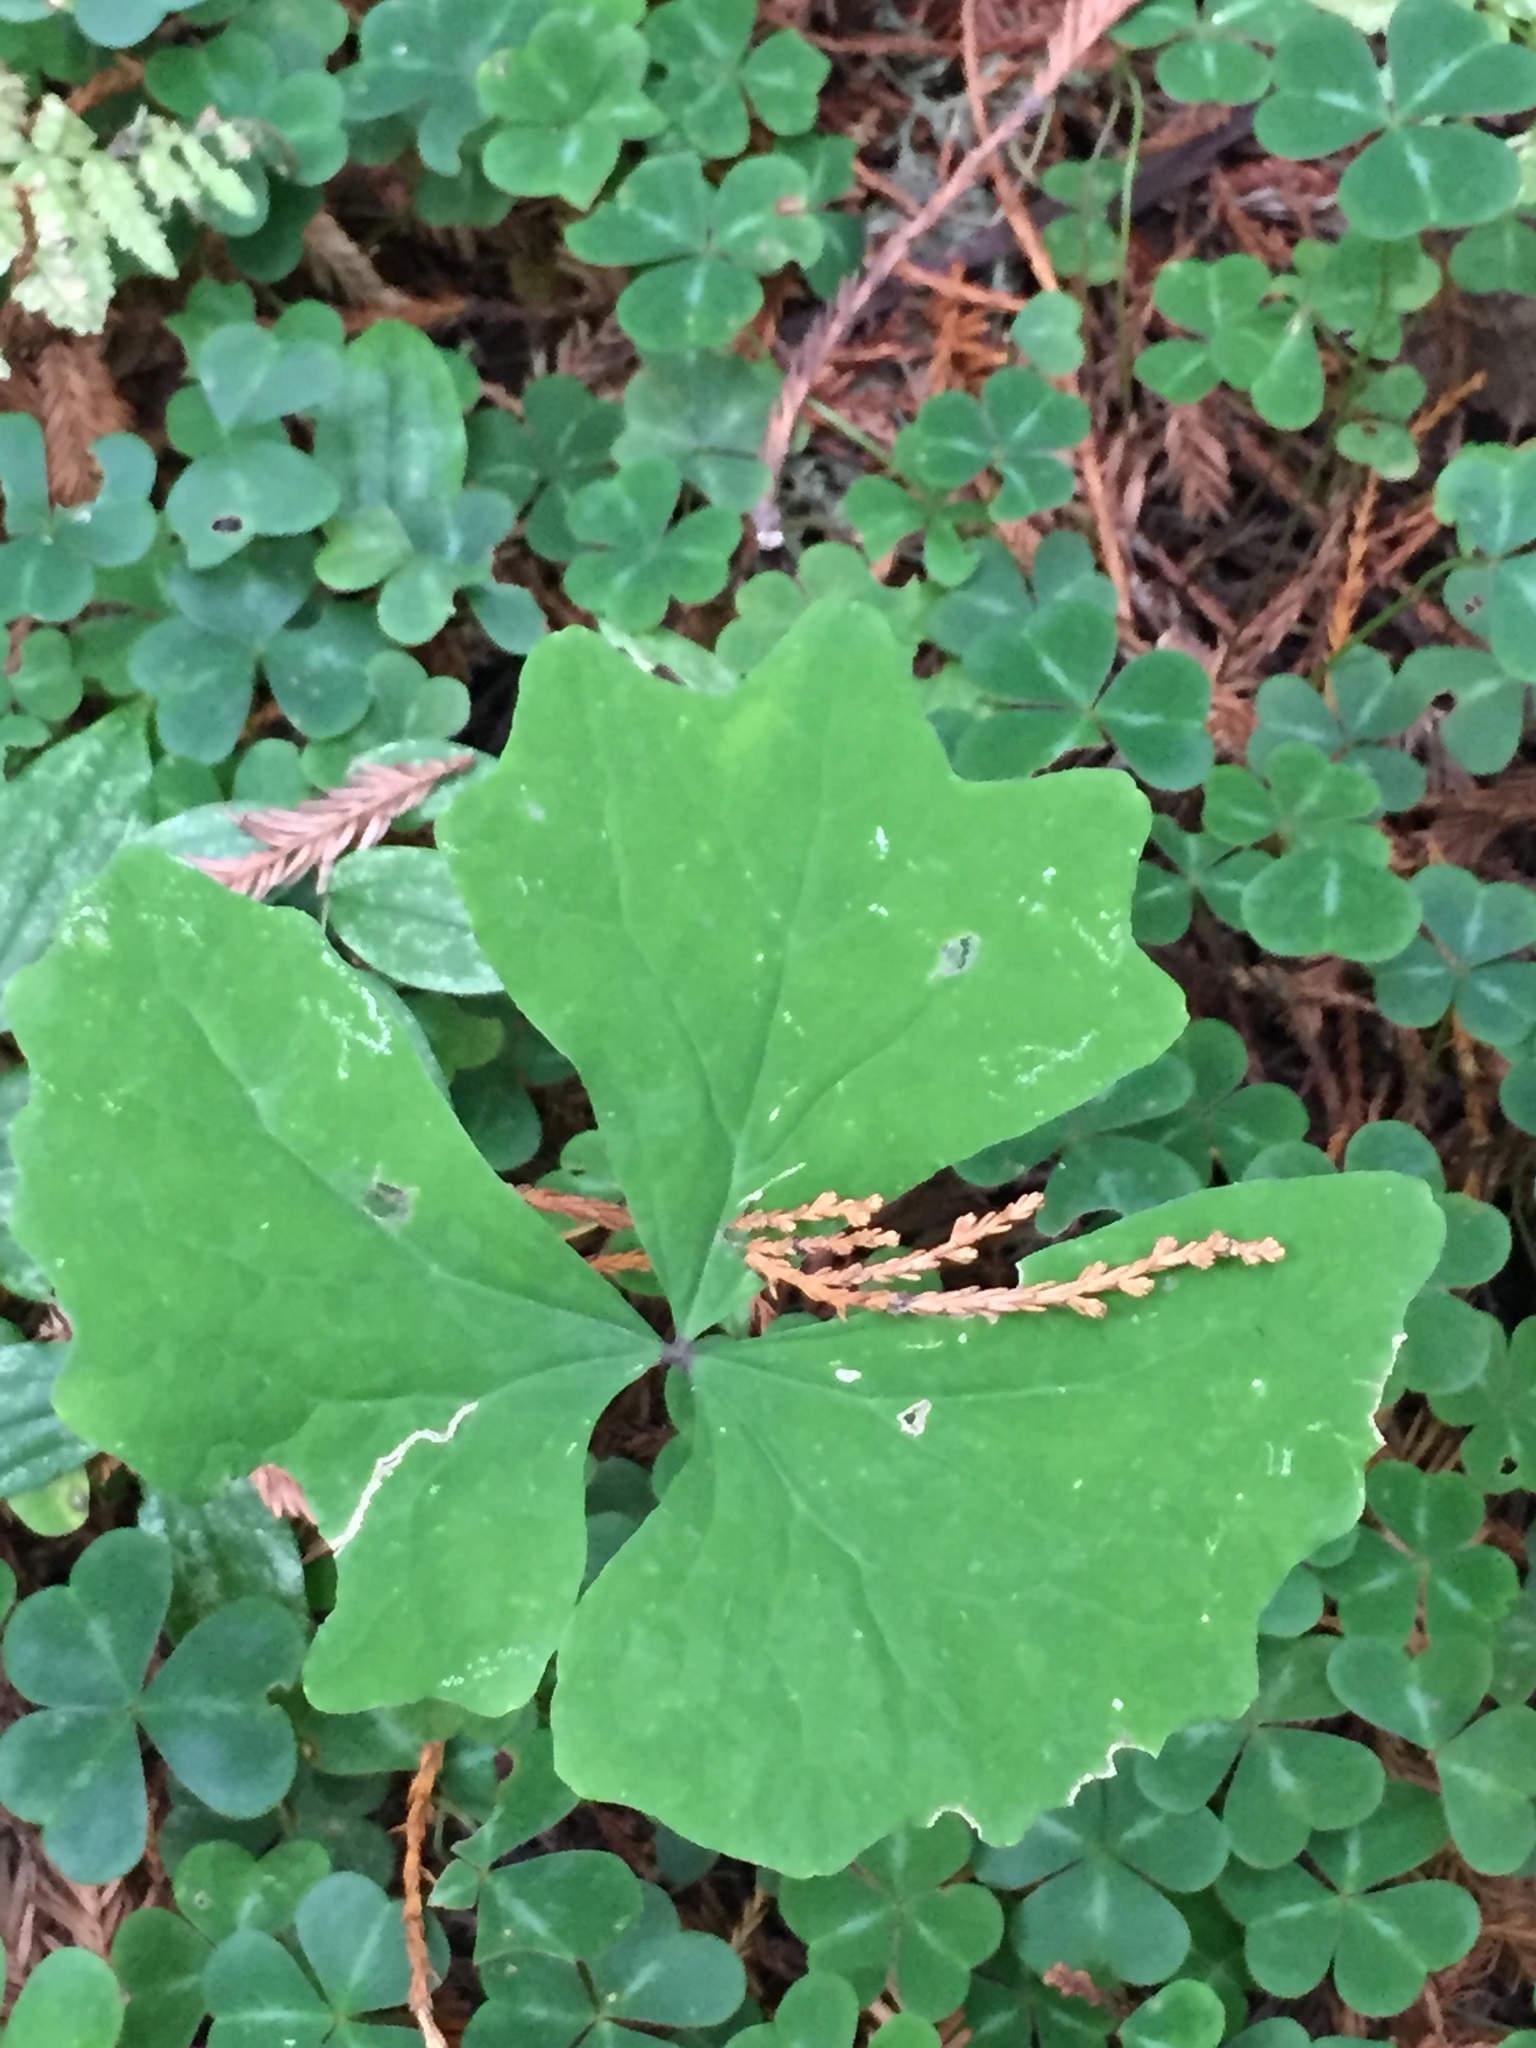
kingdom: Plantae
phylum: Tracheophyta
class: Magnoliopsida
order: Ranunculales
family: Berberidaceae
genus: Achlys
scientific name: Achlys triphylla
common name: Vanilla-leaf
